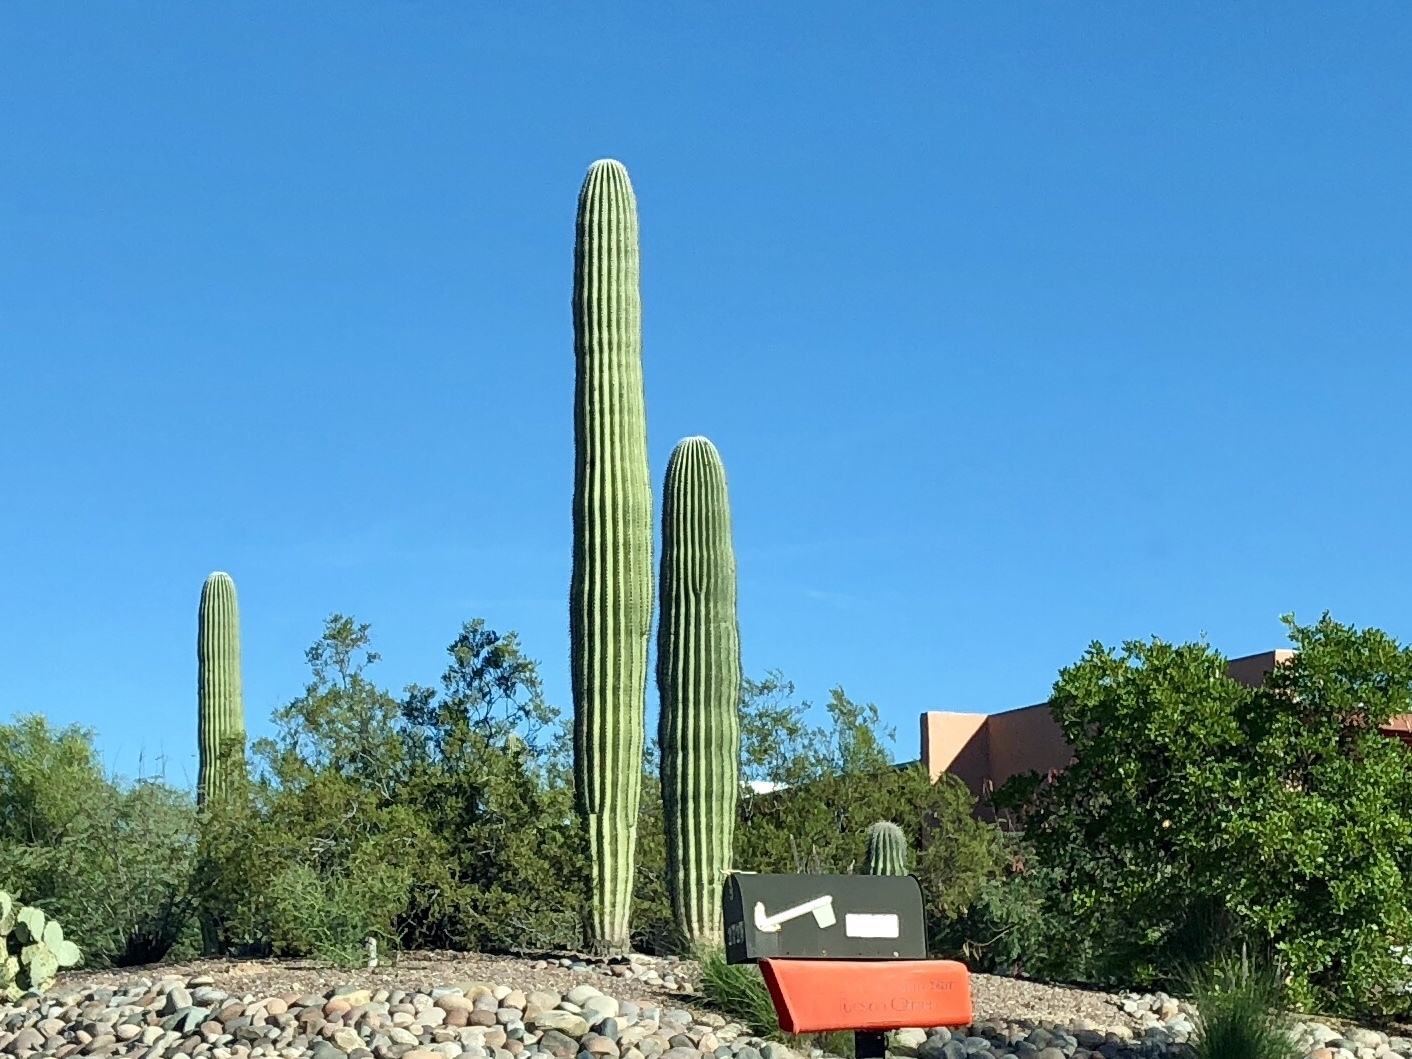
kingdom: Plantae
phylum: Tracheophyta
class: Magnoliopsida
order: Caryophyllales
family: Cactaceae
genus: Carnegiea
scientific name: Carnegiea gigantea
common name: Saguaro
